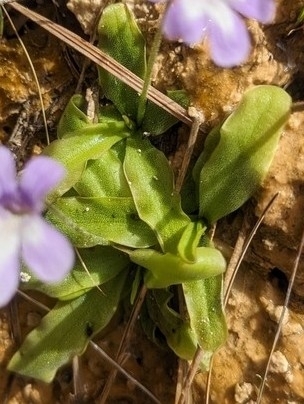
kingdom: Plantae
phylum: Tracheophyta
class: Magnoliopsida
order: Lamiales
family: Lentibulariaceae
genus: Pinguicula
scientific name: Pinguicula dertosensis
